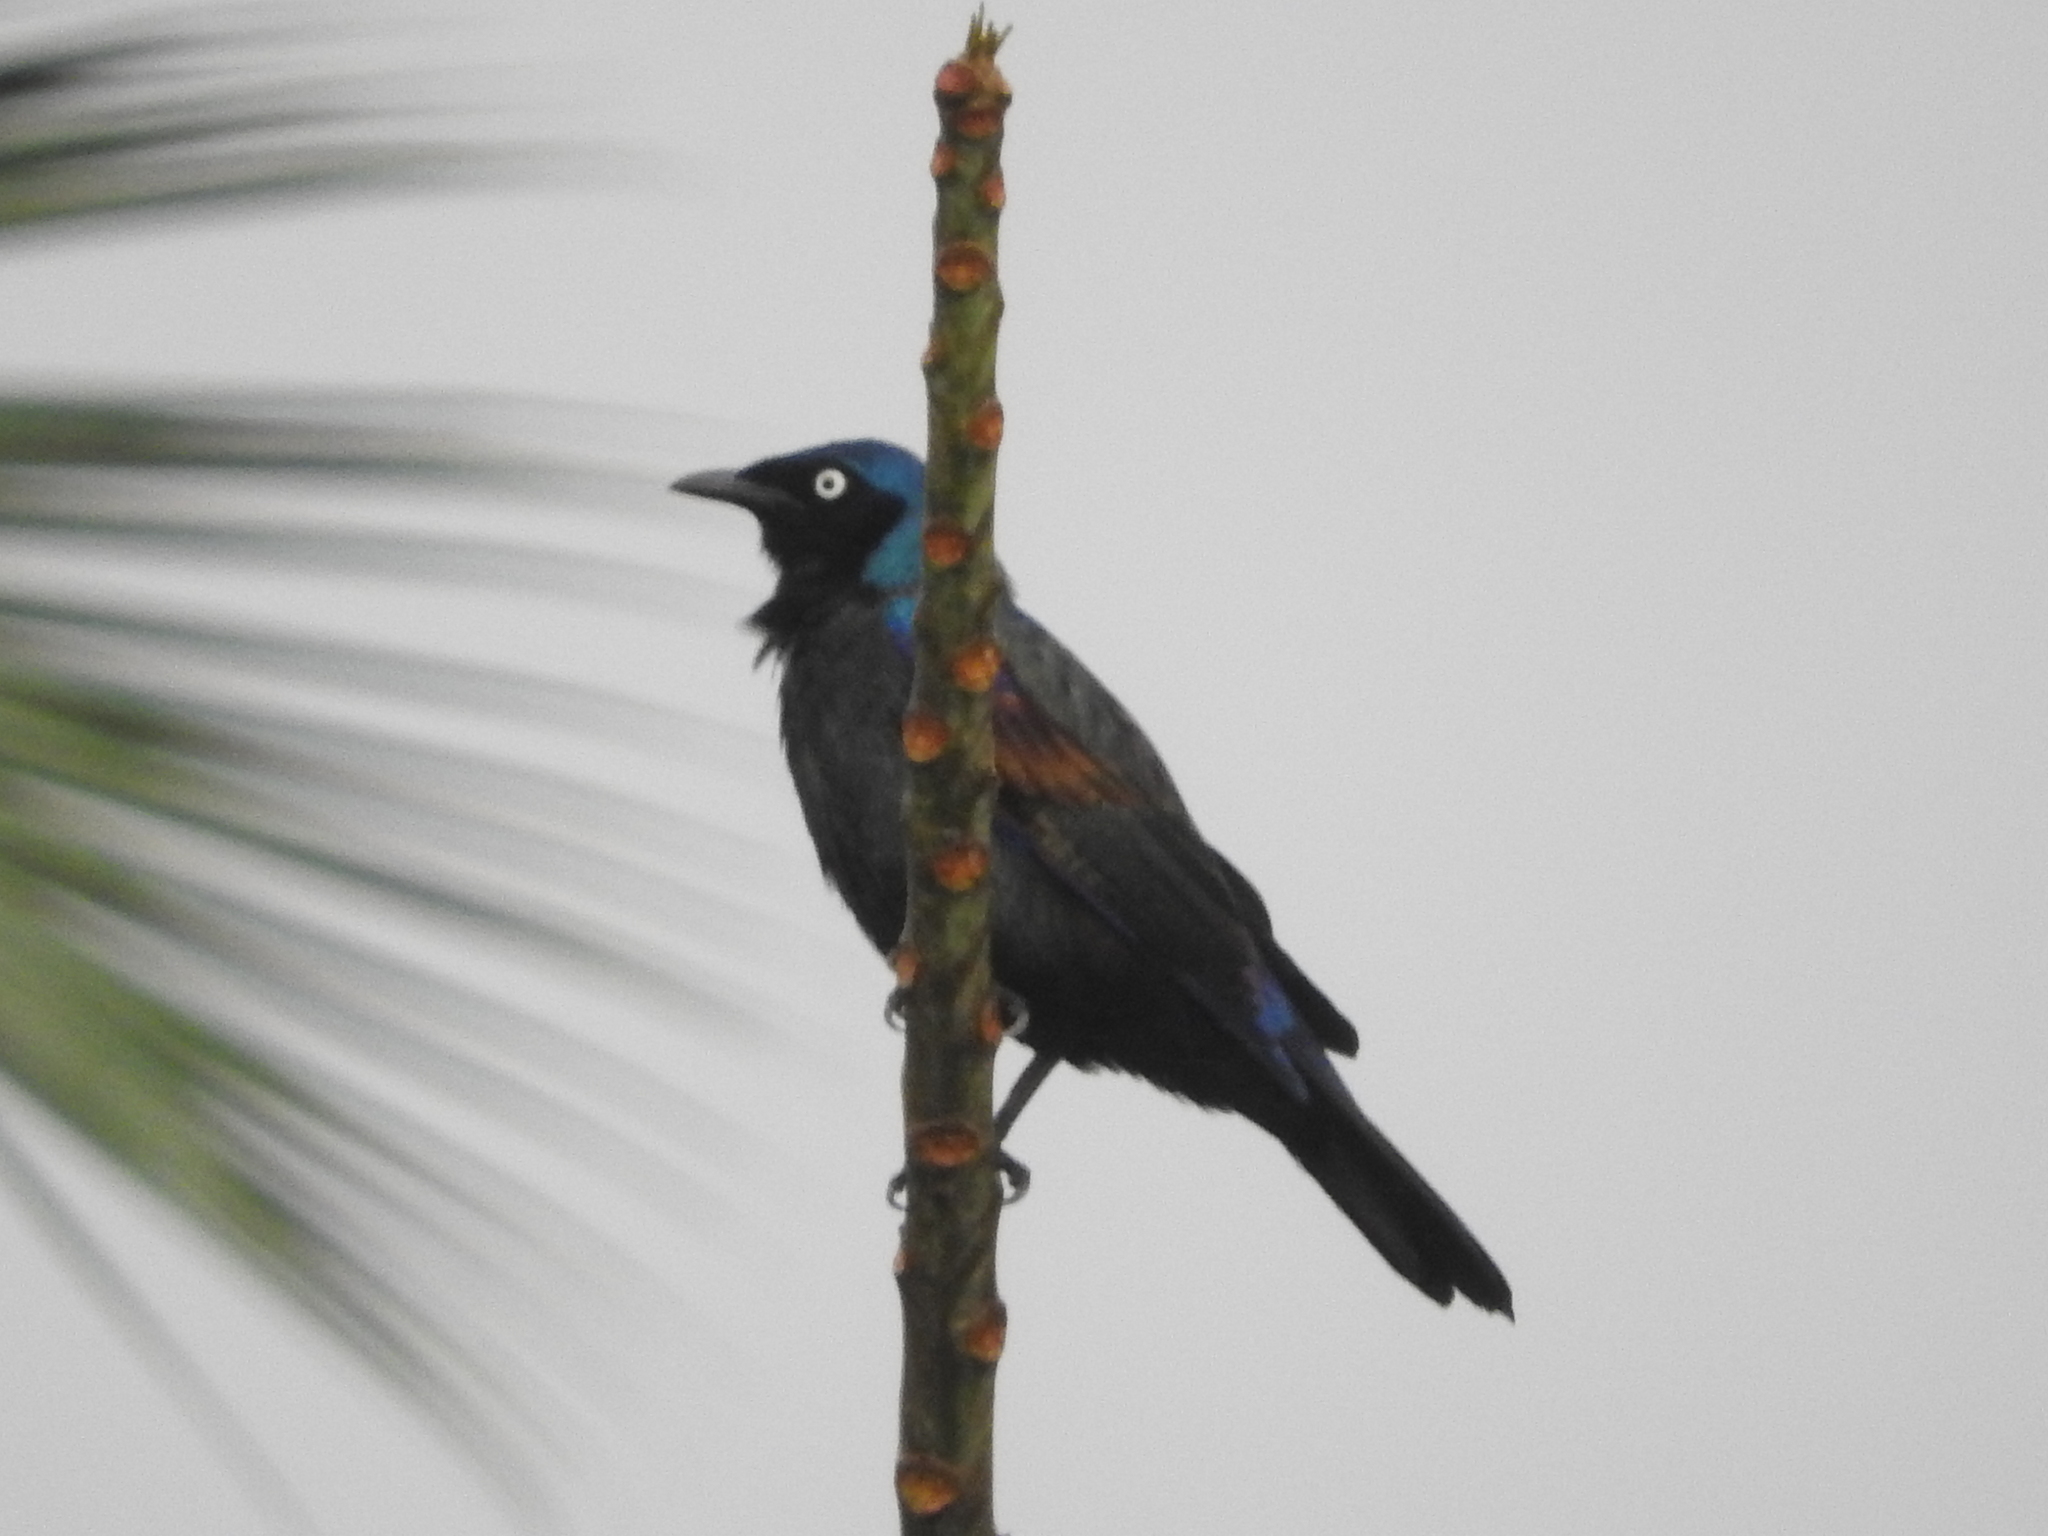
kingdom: Animalia
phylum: Chordata
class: Aves
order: Passeriformes
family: Sturnidae
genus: Lamprotornis
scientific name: Lamprotornis ornatus
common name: Principe starling
